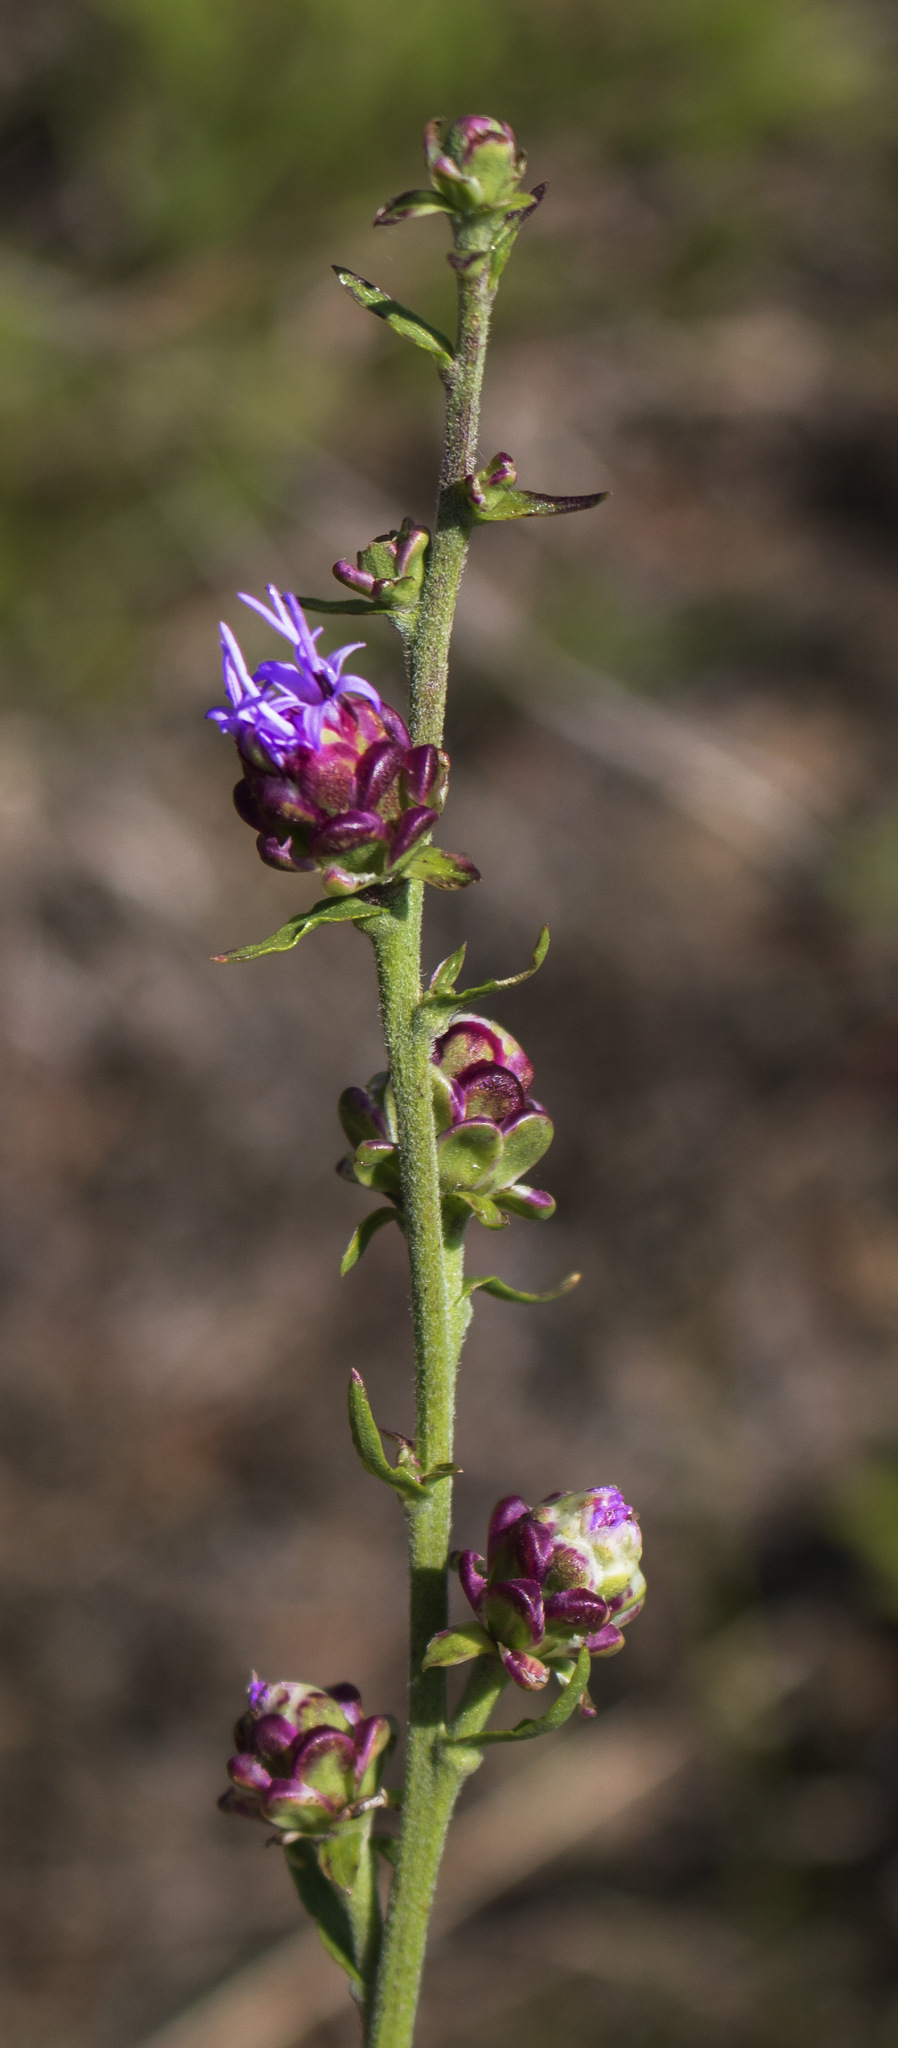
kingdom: Plantae
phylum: Tracheophyta
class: Magnoliopsida
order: Asterales
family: Asteraceae
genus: Liatris
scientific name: Liatris aspera
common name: Lacerate blazing-star
